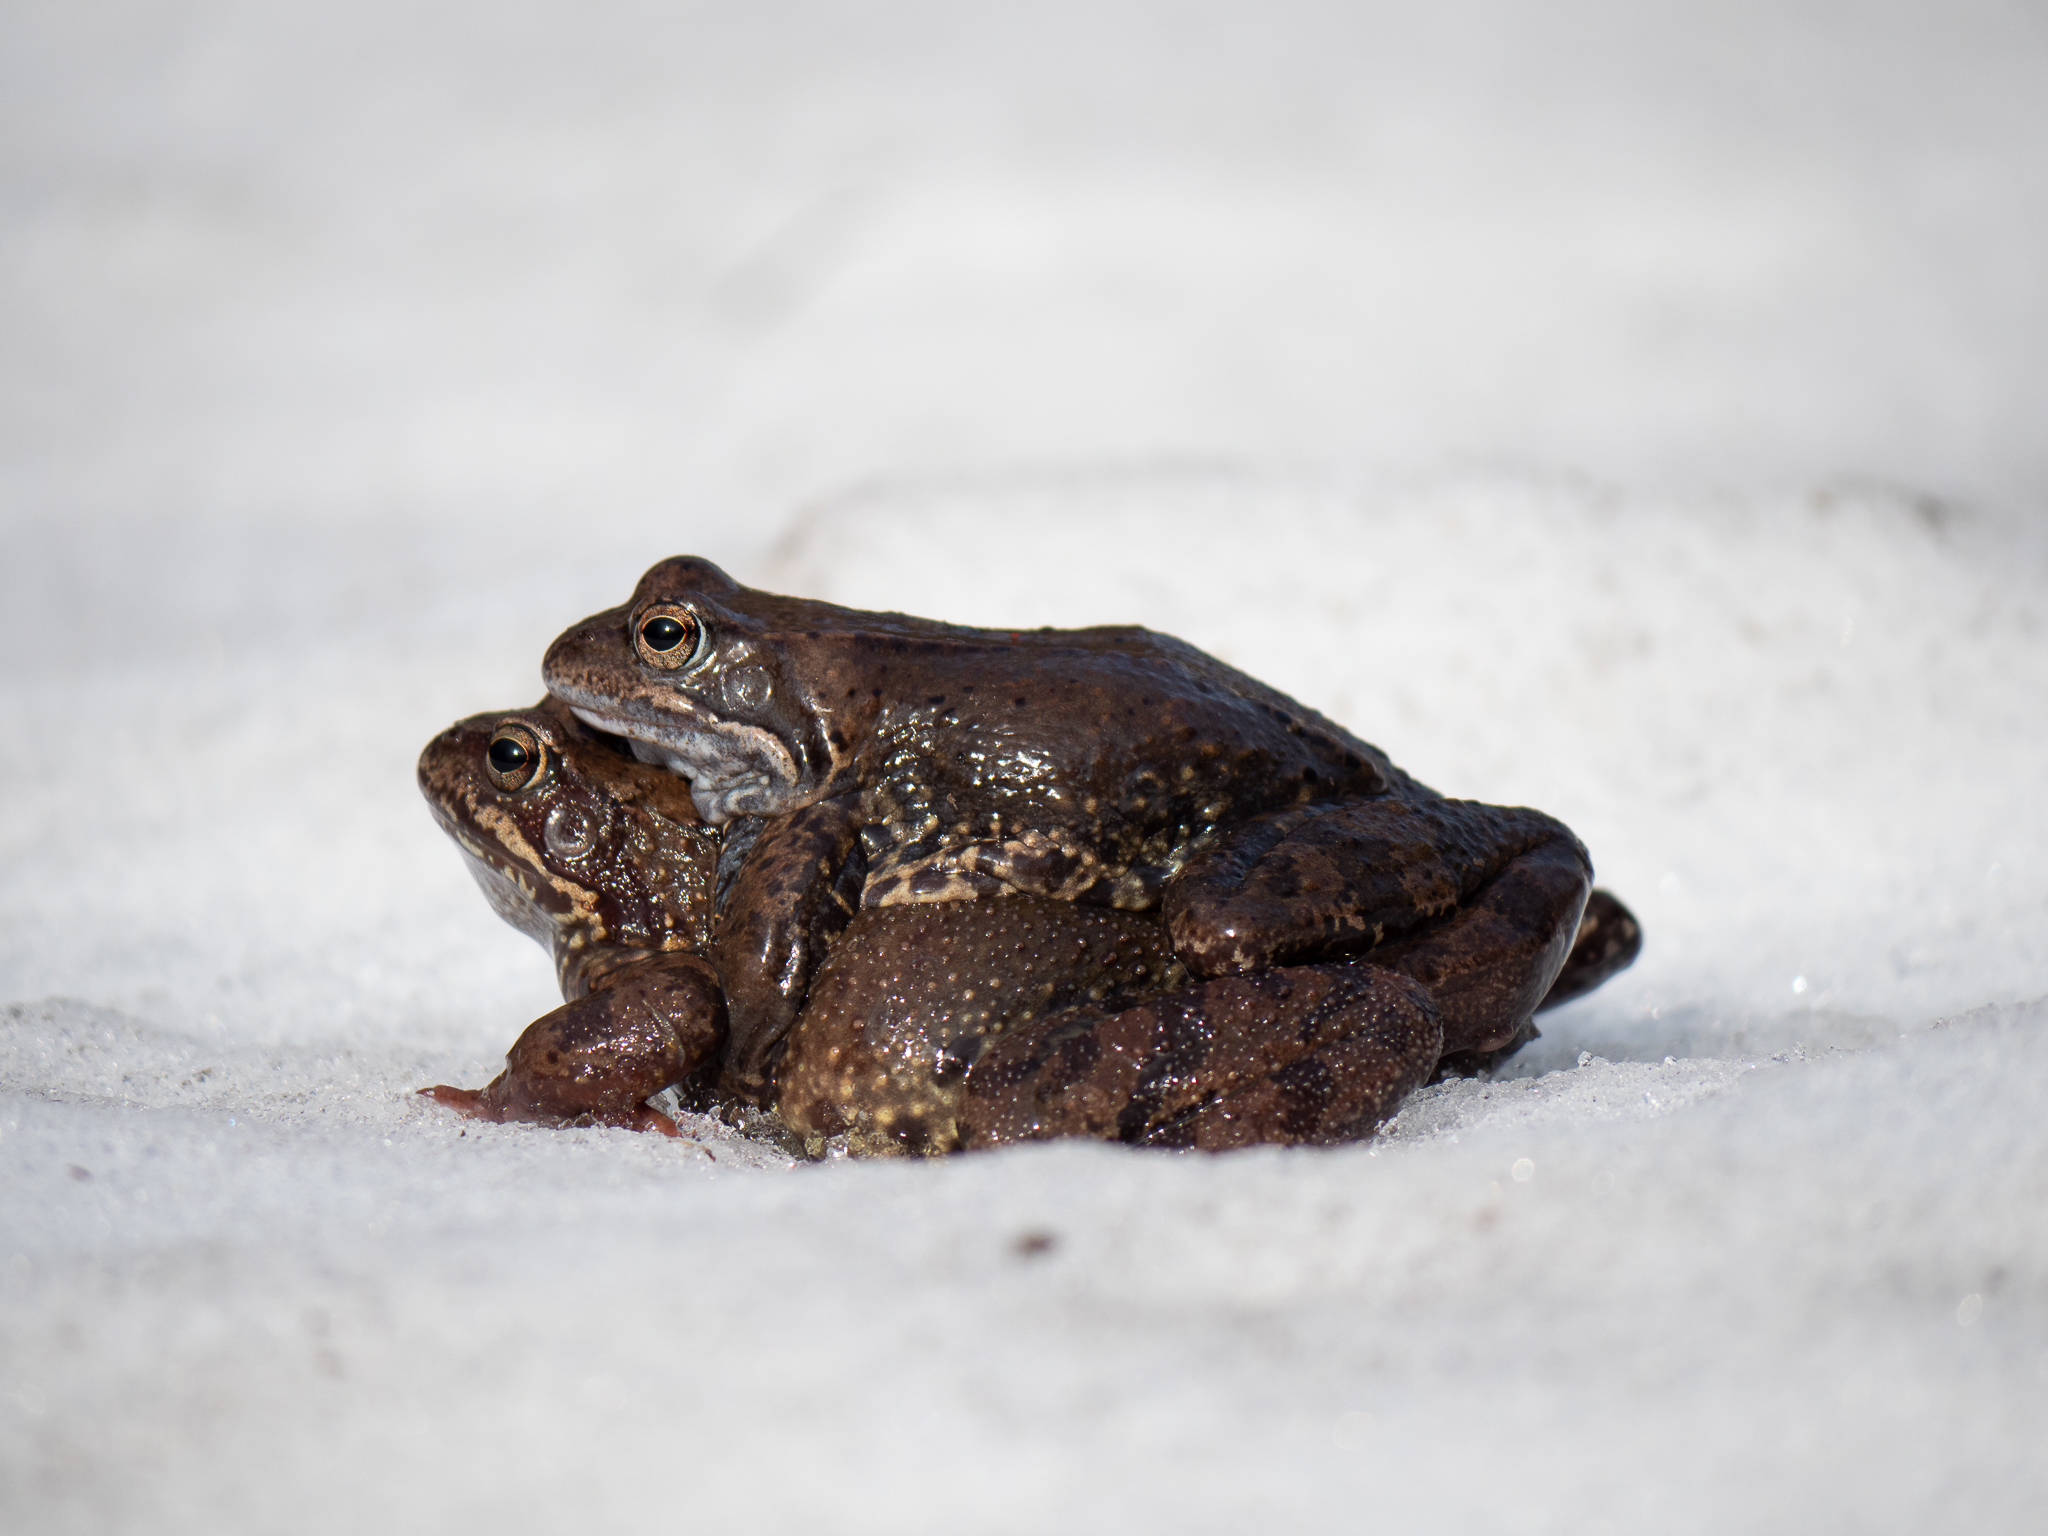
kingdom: Animalia
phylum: Chordata
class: Amphibia
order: Anura
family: Ranidae
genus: Rana
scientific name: Rana temporaria
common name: Common frog
